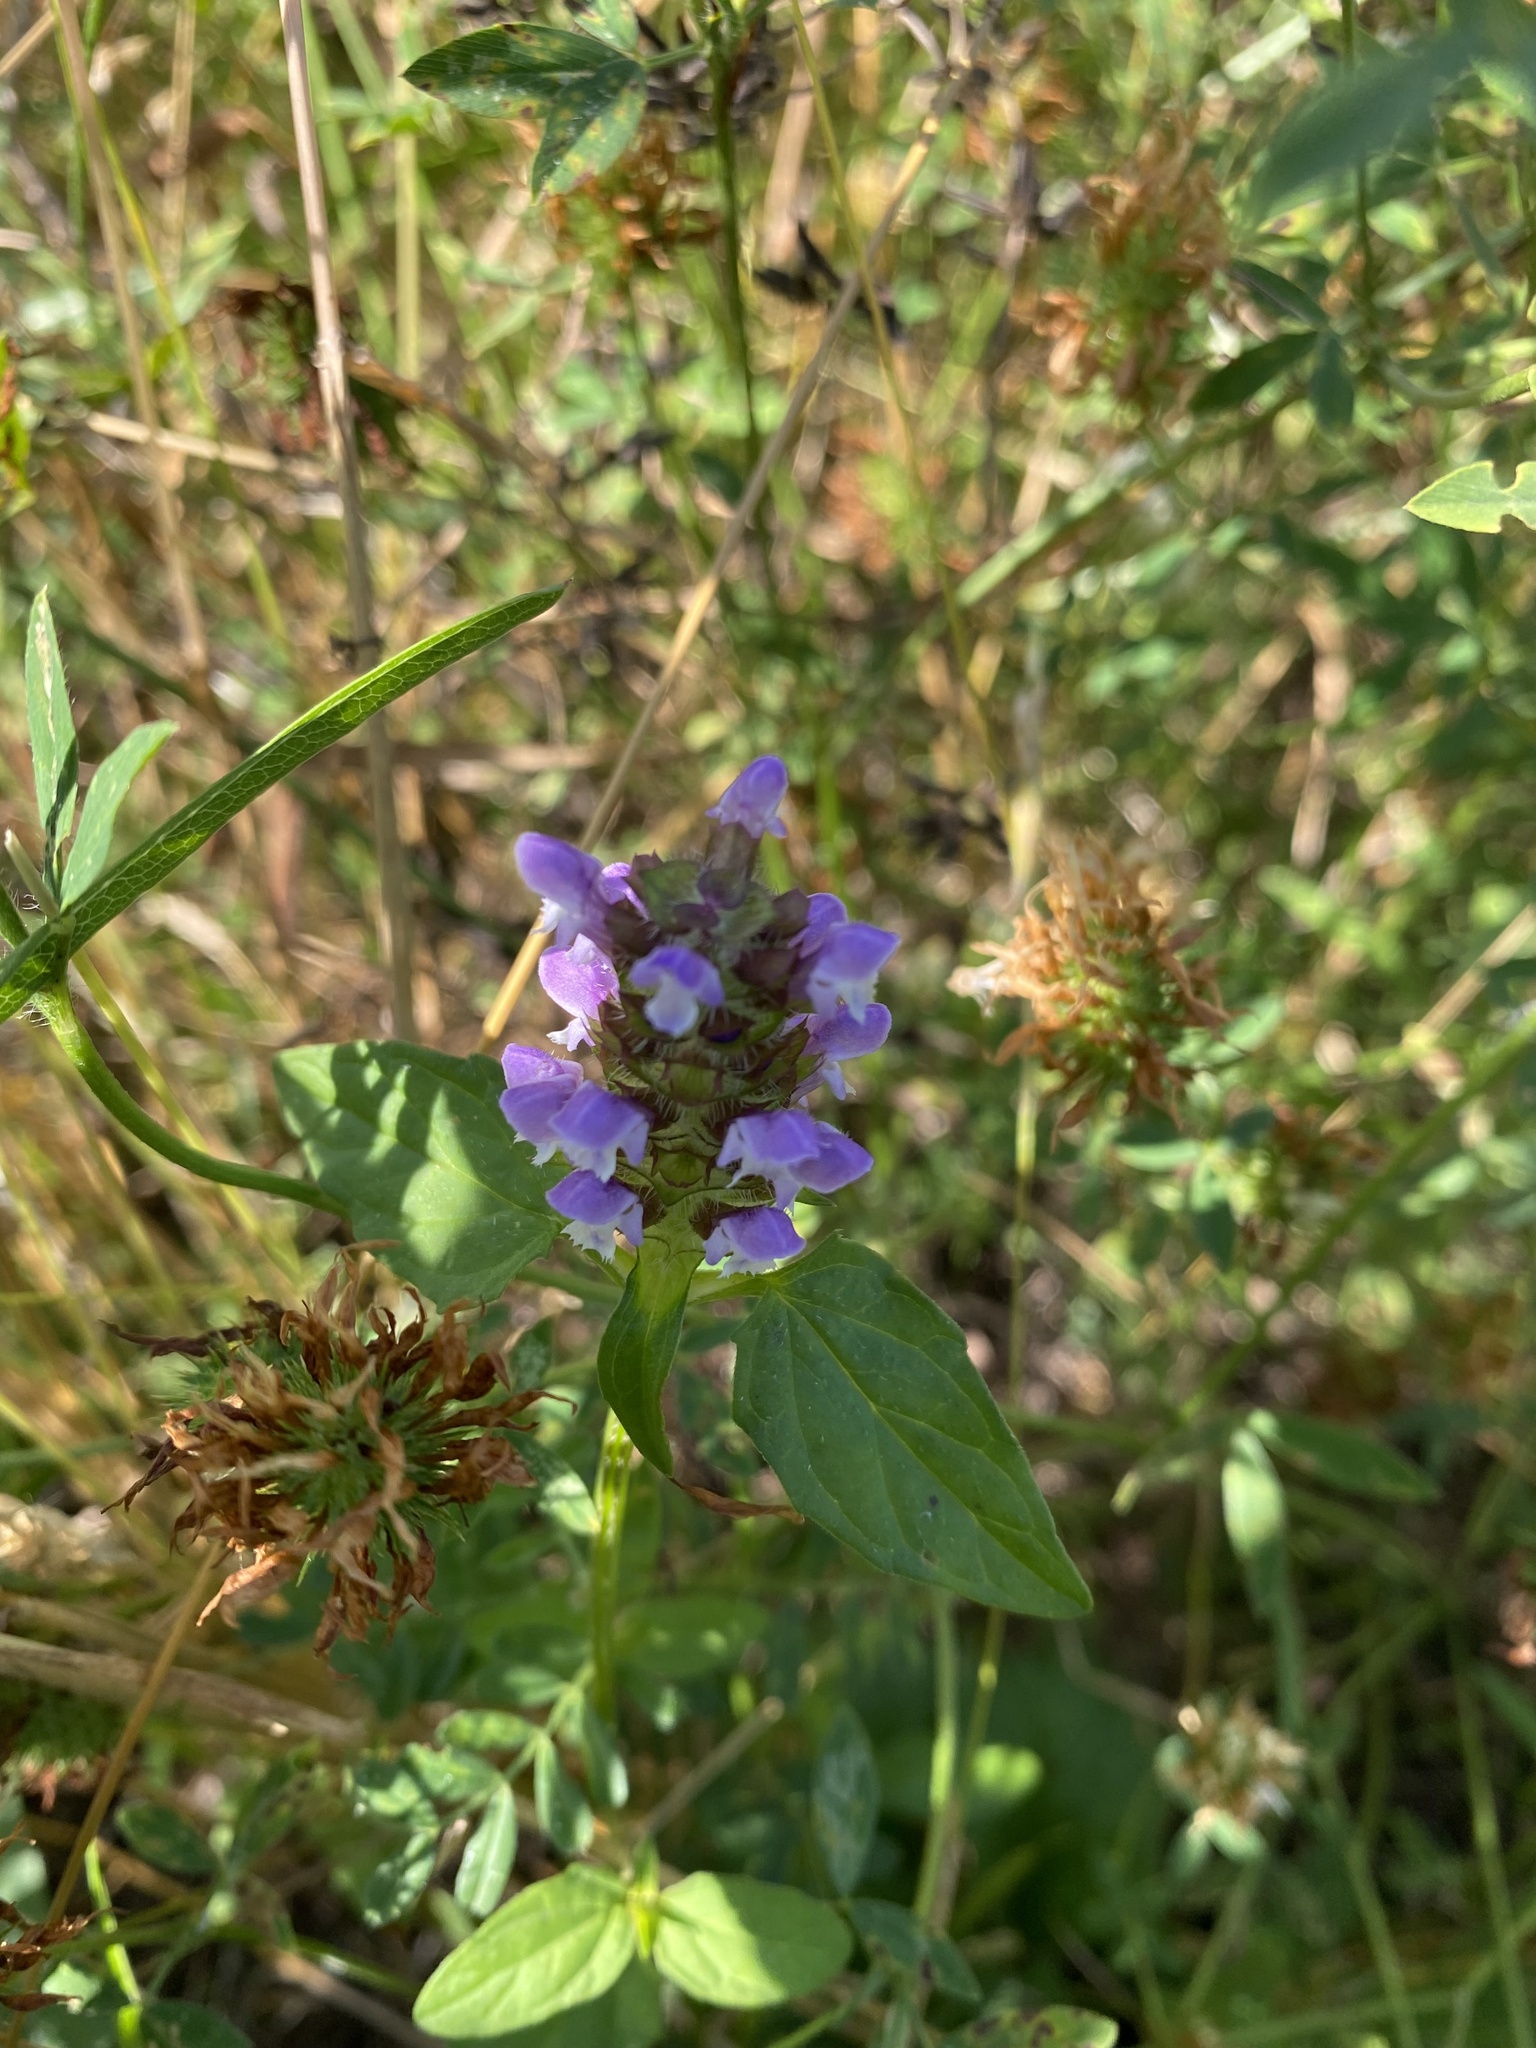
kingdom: Plantae
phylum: Tracheophyta
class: Magnoliopsida
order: Lamiales
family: Lamiaceae
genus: Prunella
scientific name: Prunella vulgaris
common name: Heal-all
